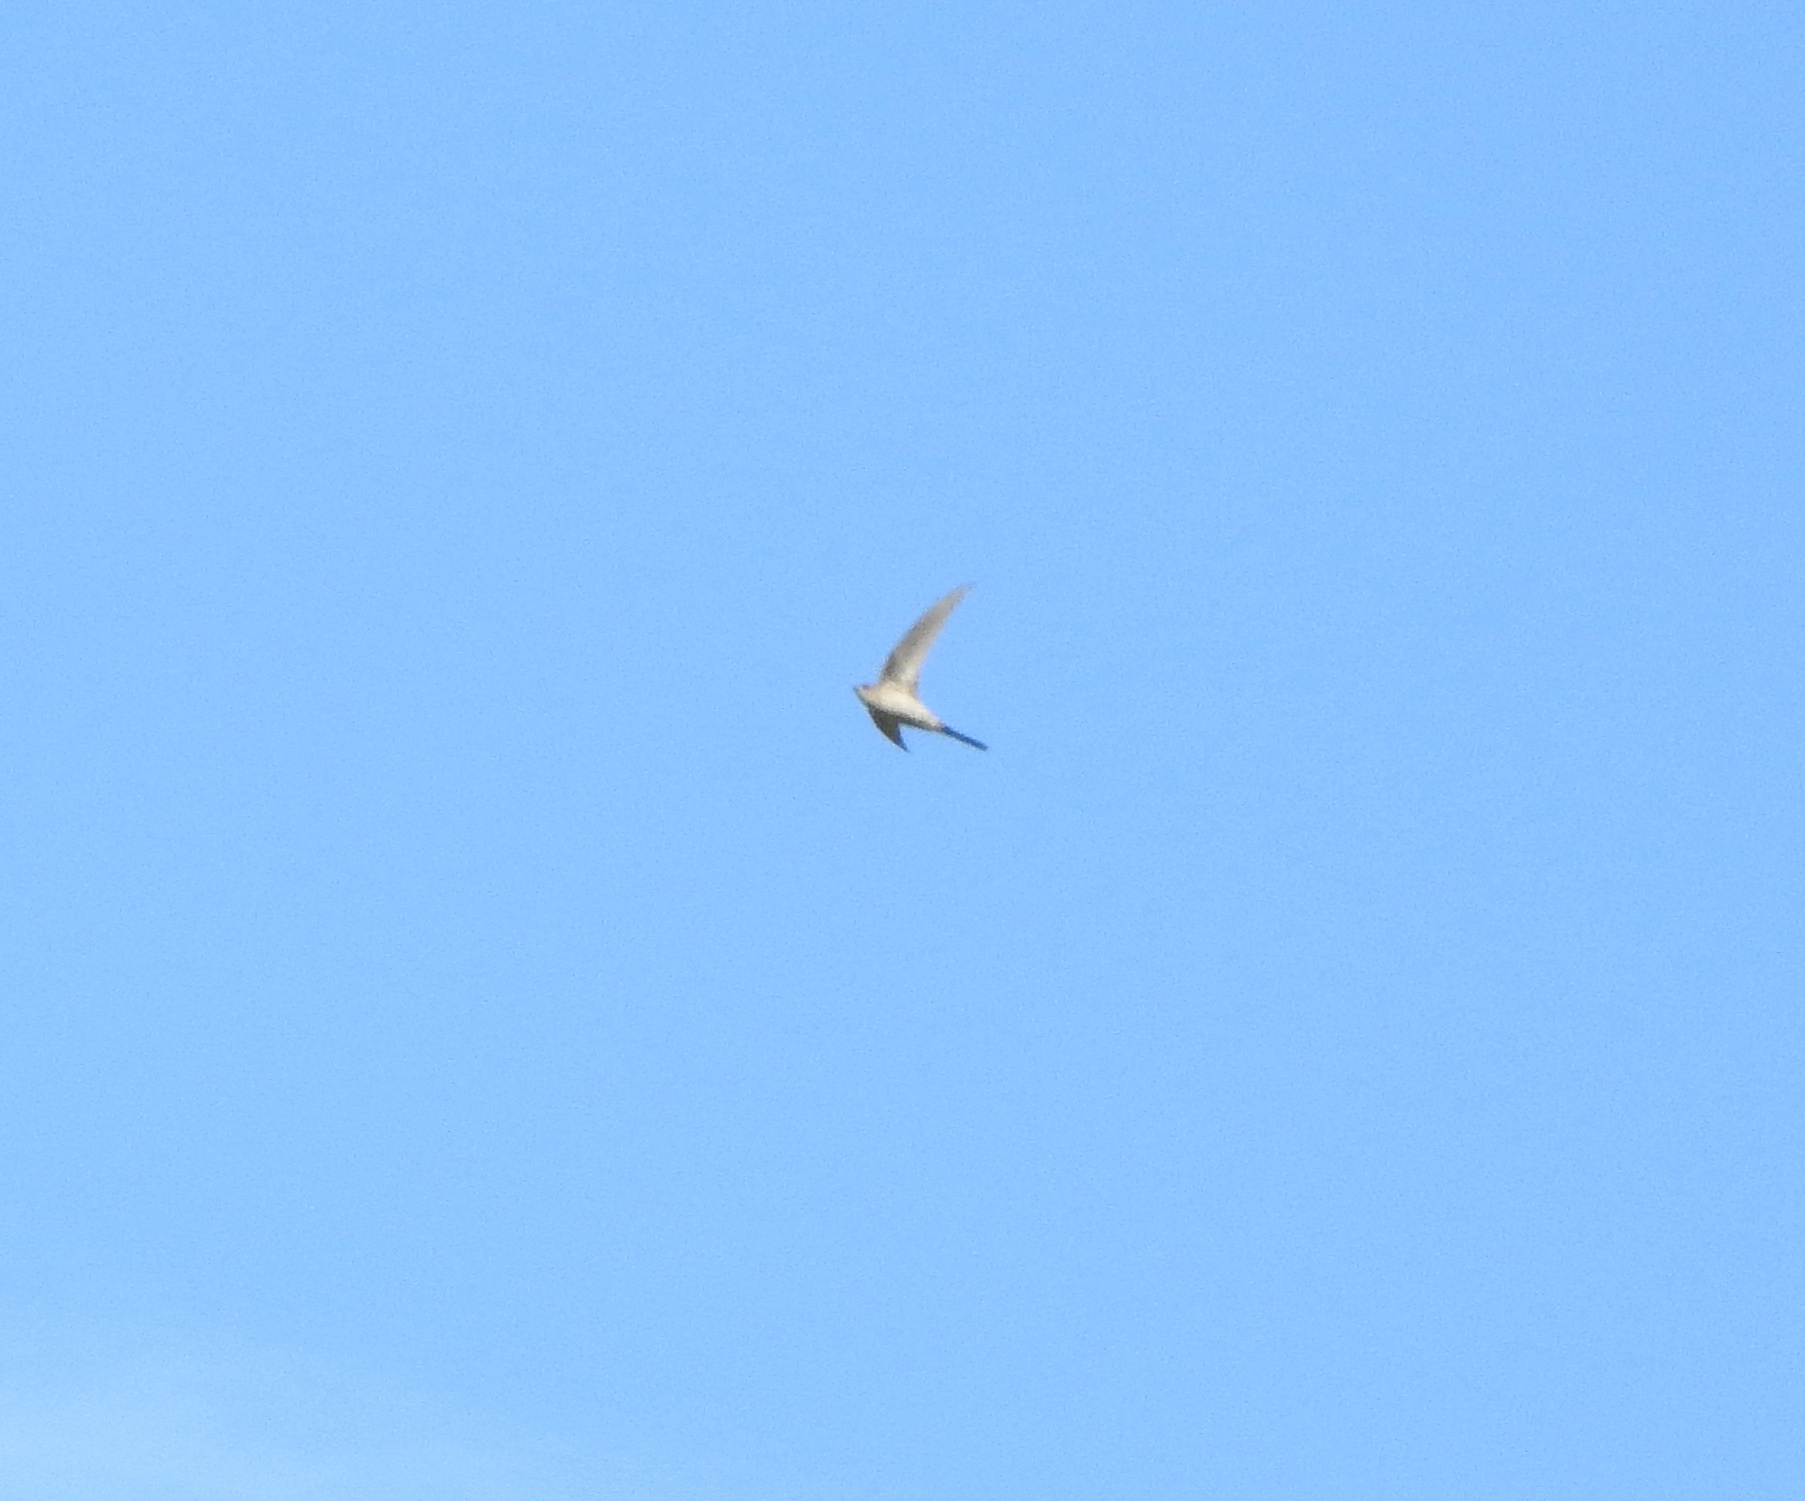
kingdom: Animalia
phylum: Chordata
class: Aves
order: Apodiformes
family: Apodidae
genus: Cypsiurus
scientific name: Cypsiurus balasiensis
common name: Asian palm swift
